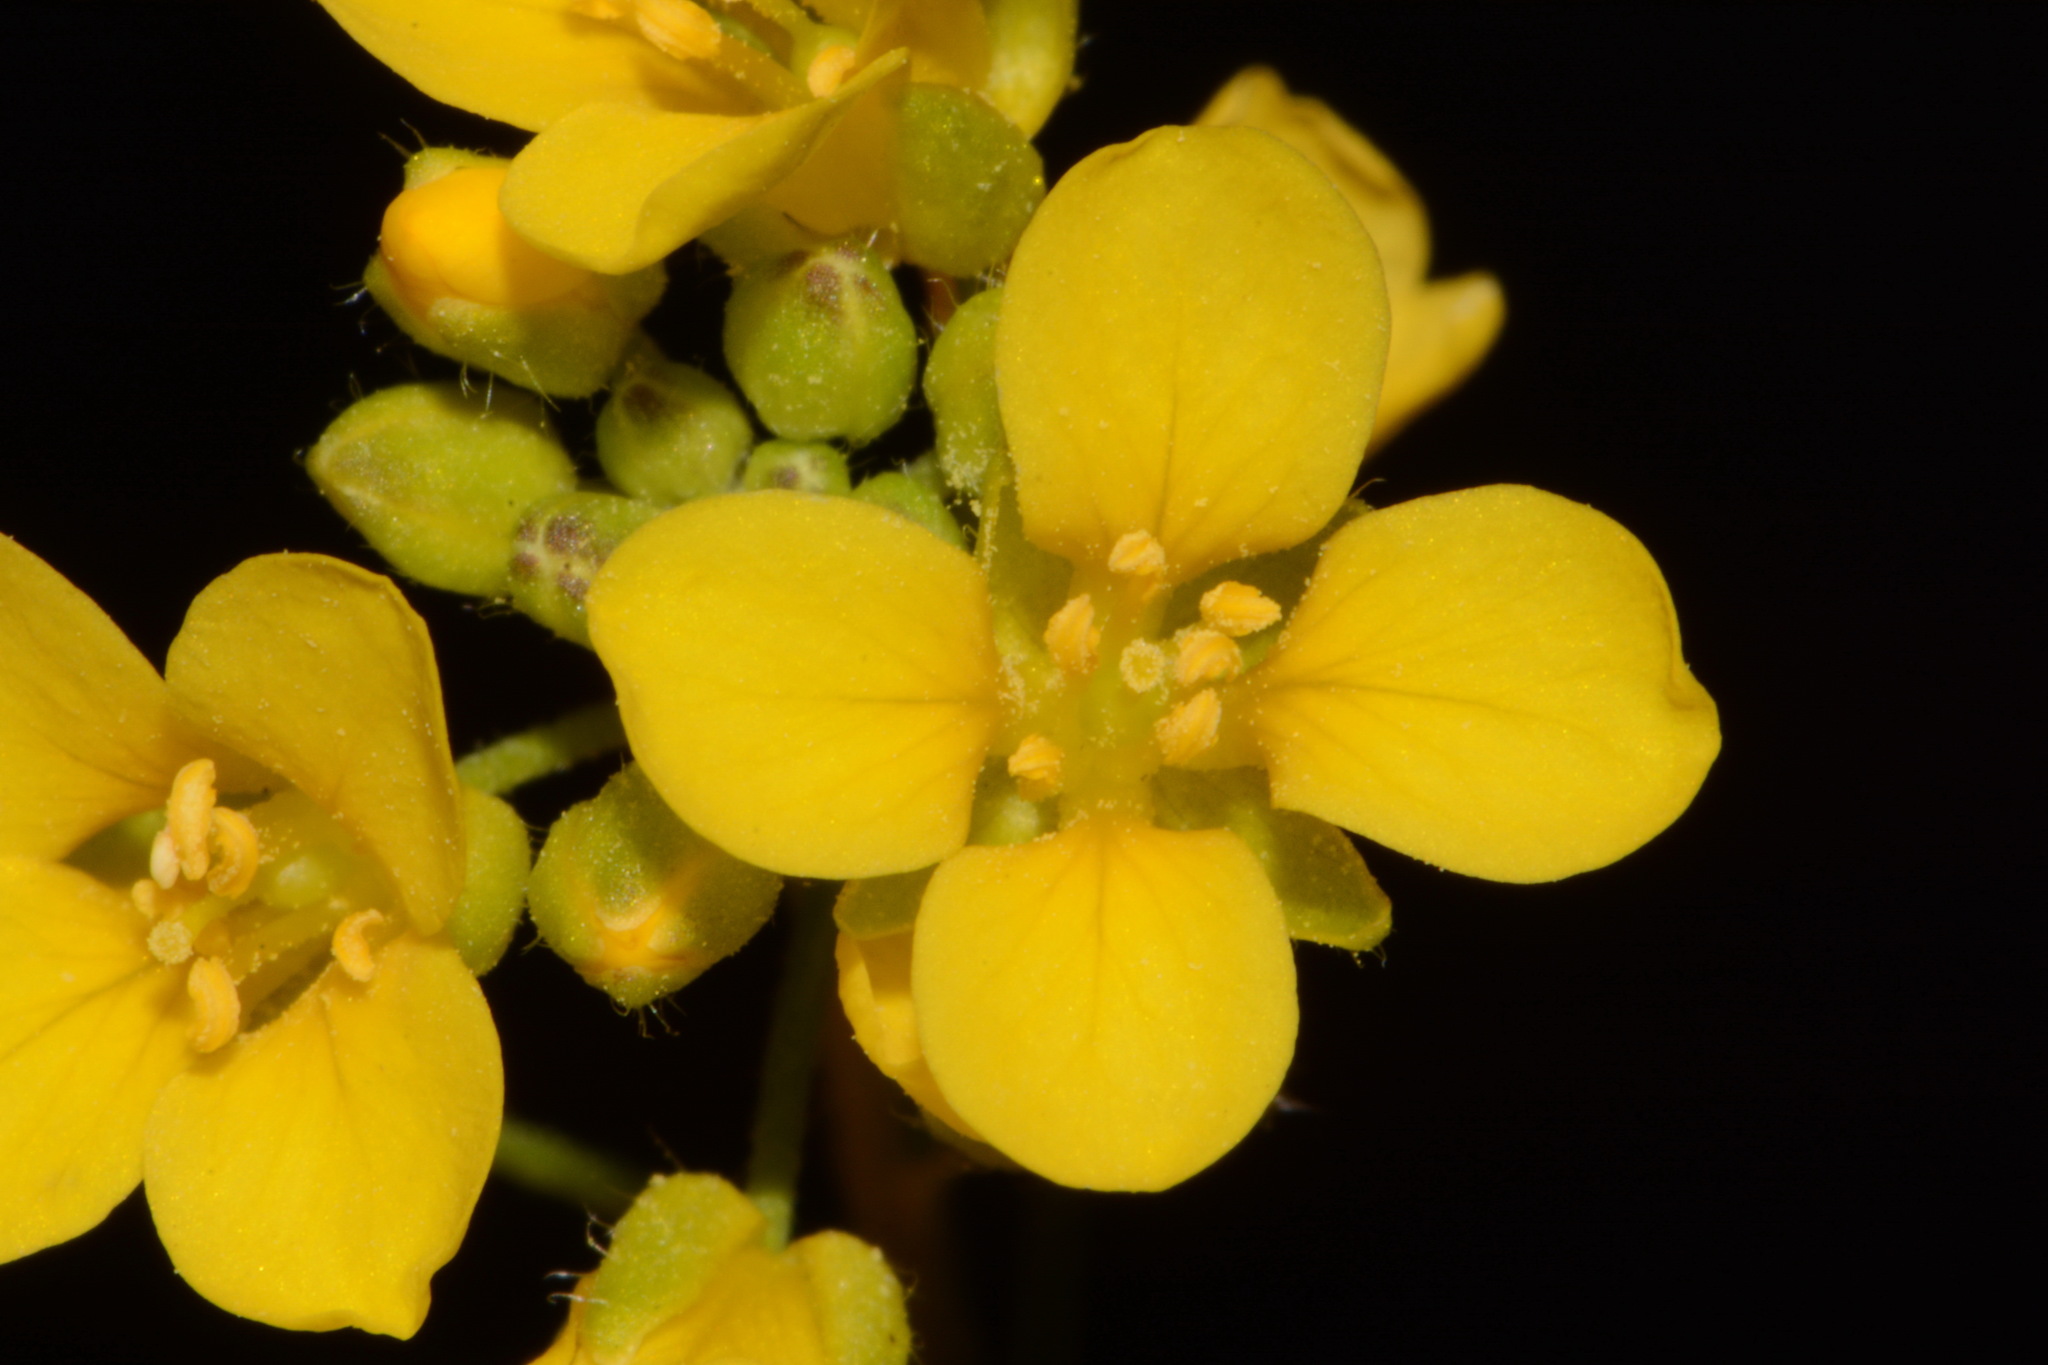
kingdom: Plantae
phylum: Tracheophyta
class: Magnoliopsida
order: Brassicales
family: Brassicaceae
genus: Paysonia
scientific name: Paysonia lyrata
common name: Lyrate bladderpod
